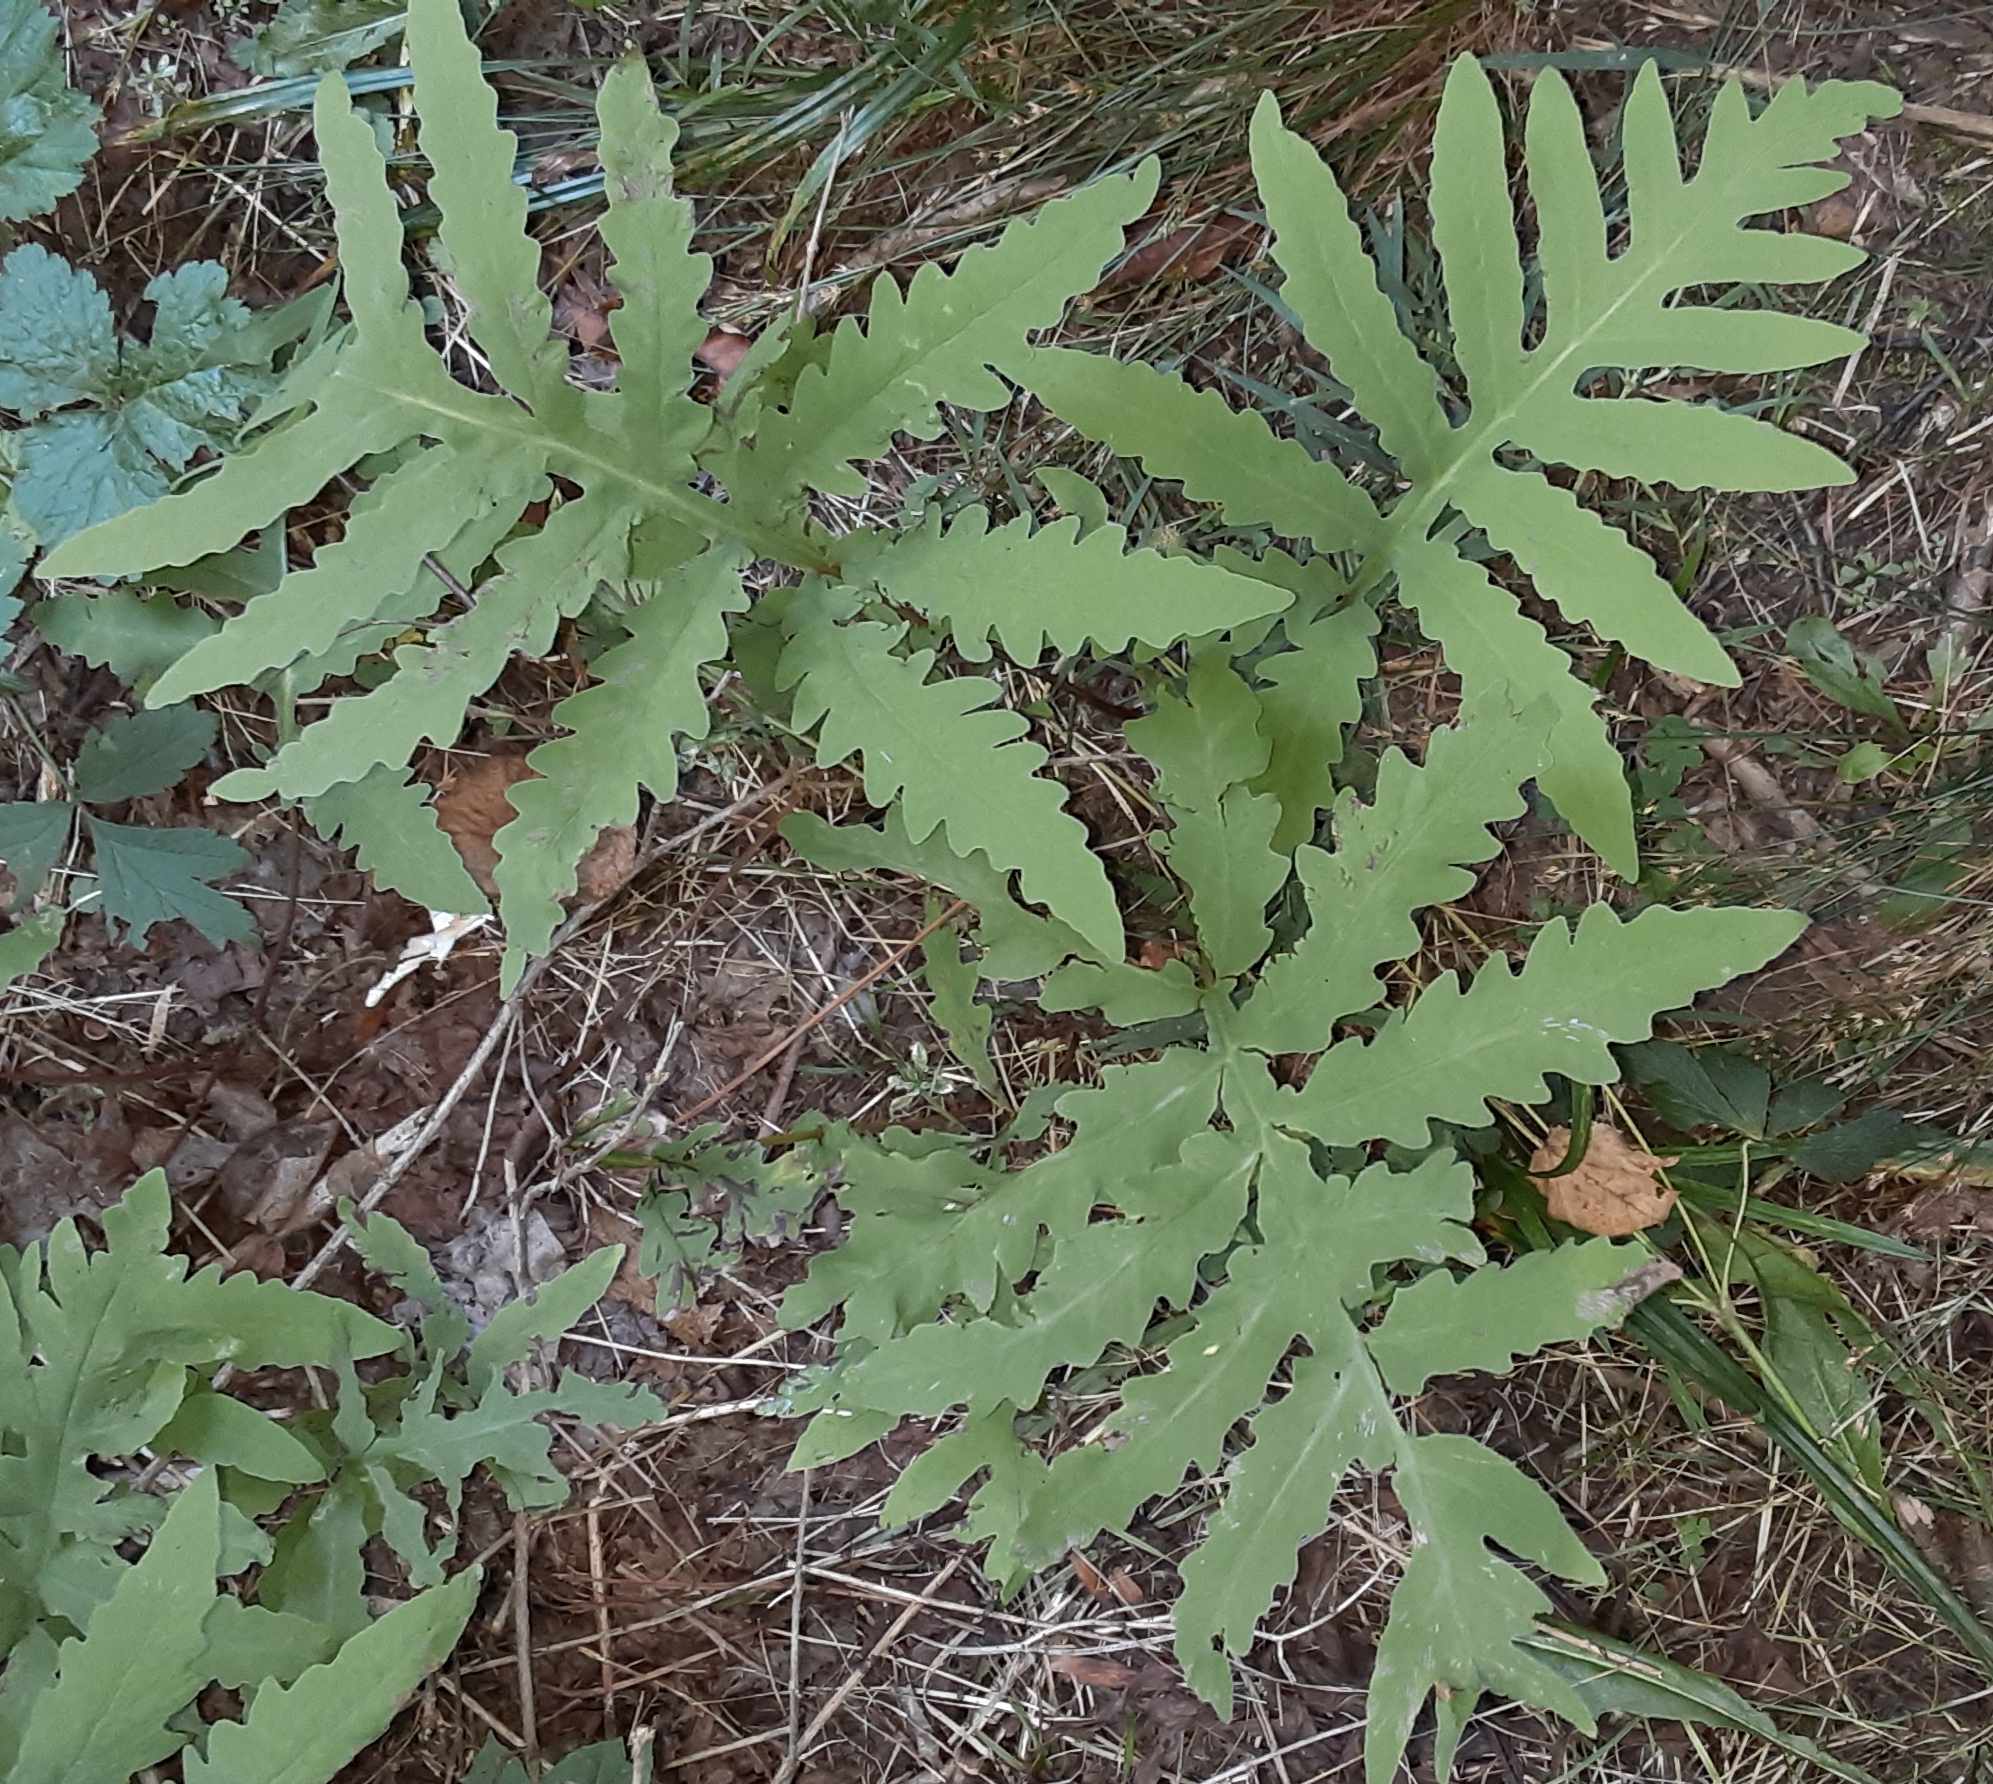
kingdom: Plantae
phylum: Tracheophyta
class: Polypodiopsida
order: Polypodiales
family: Onocleaceae
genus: Onoclea
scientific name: Onoclea sensibilis
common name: Sensitive fern
